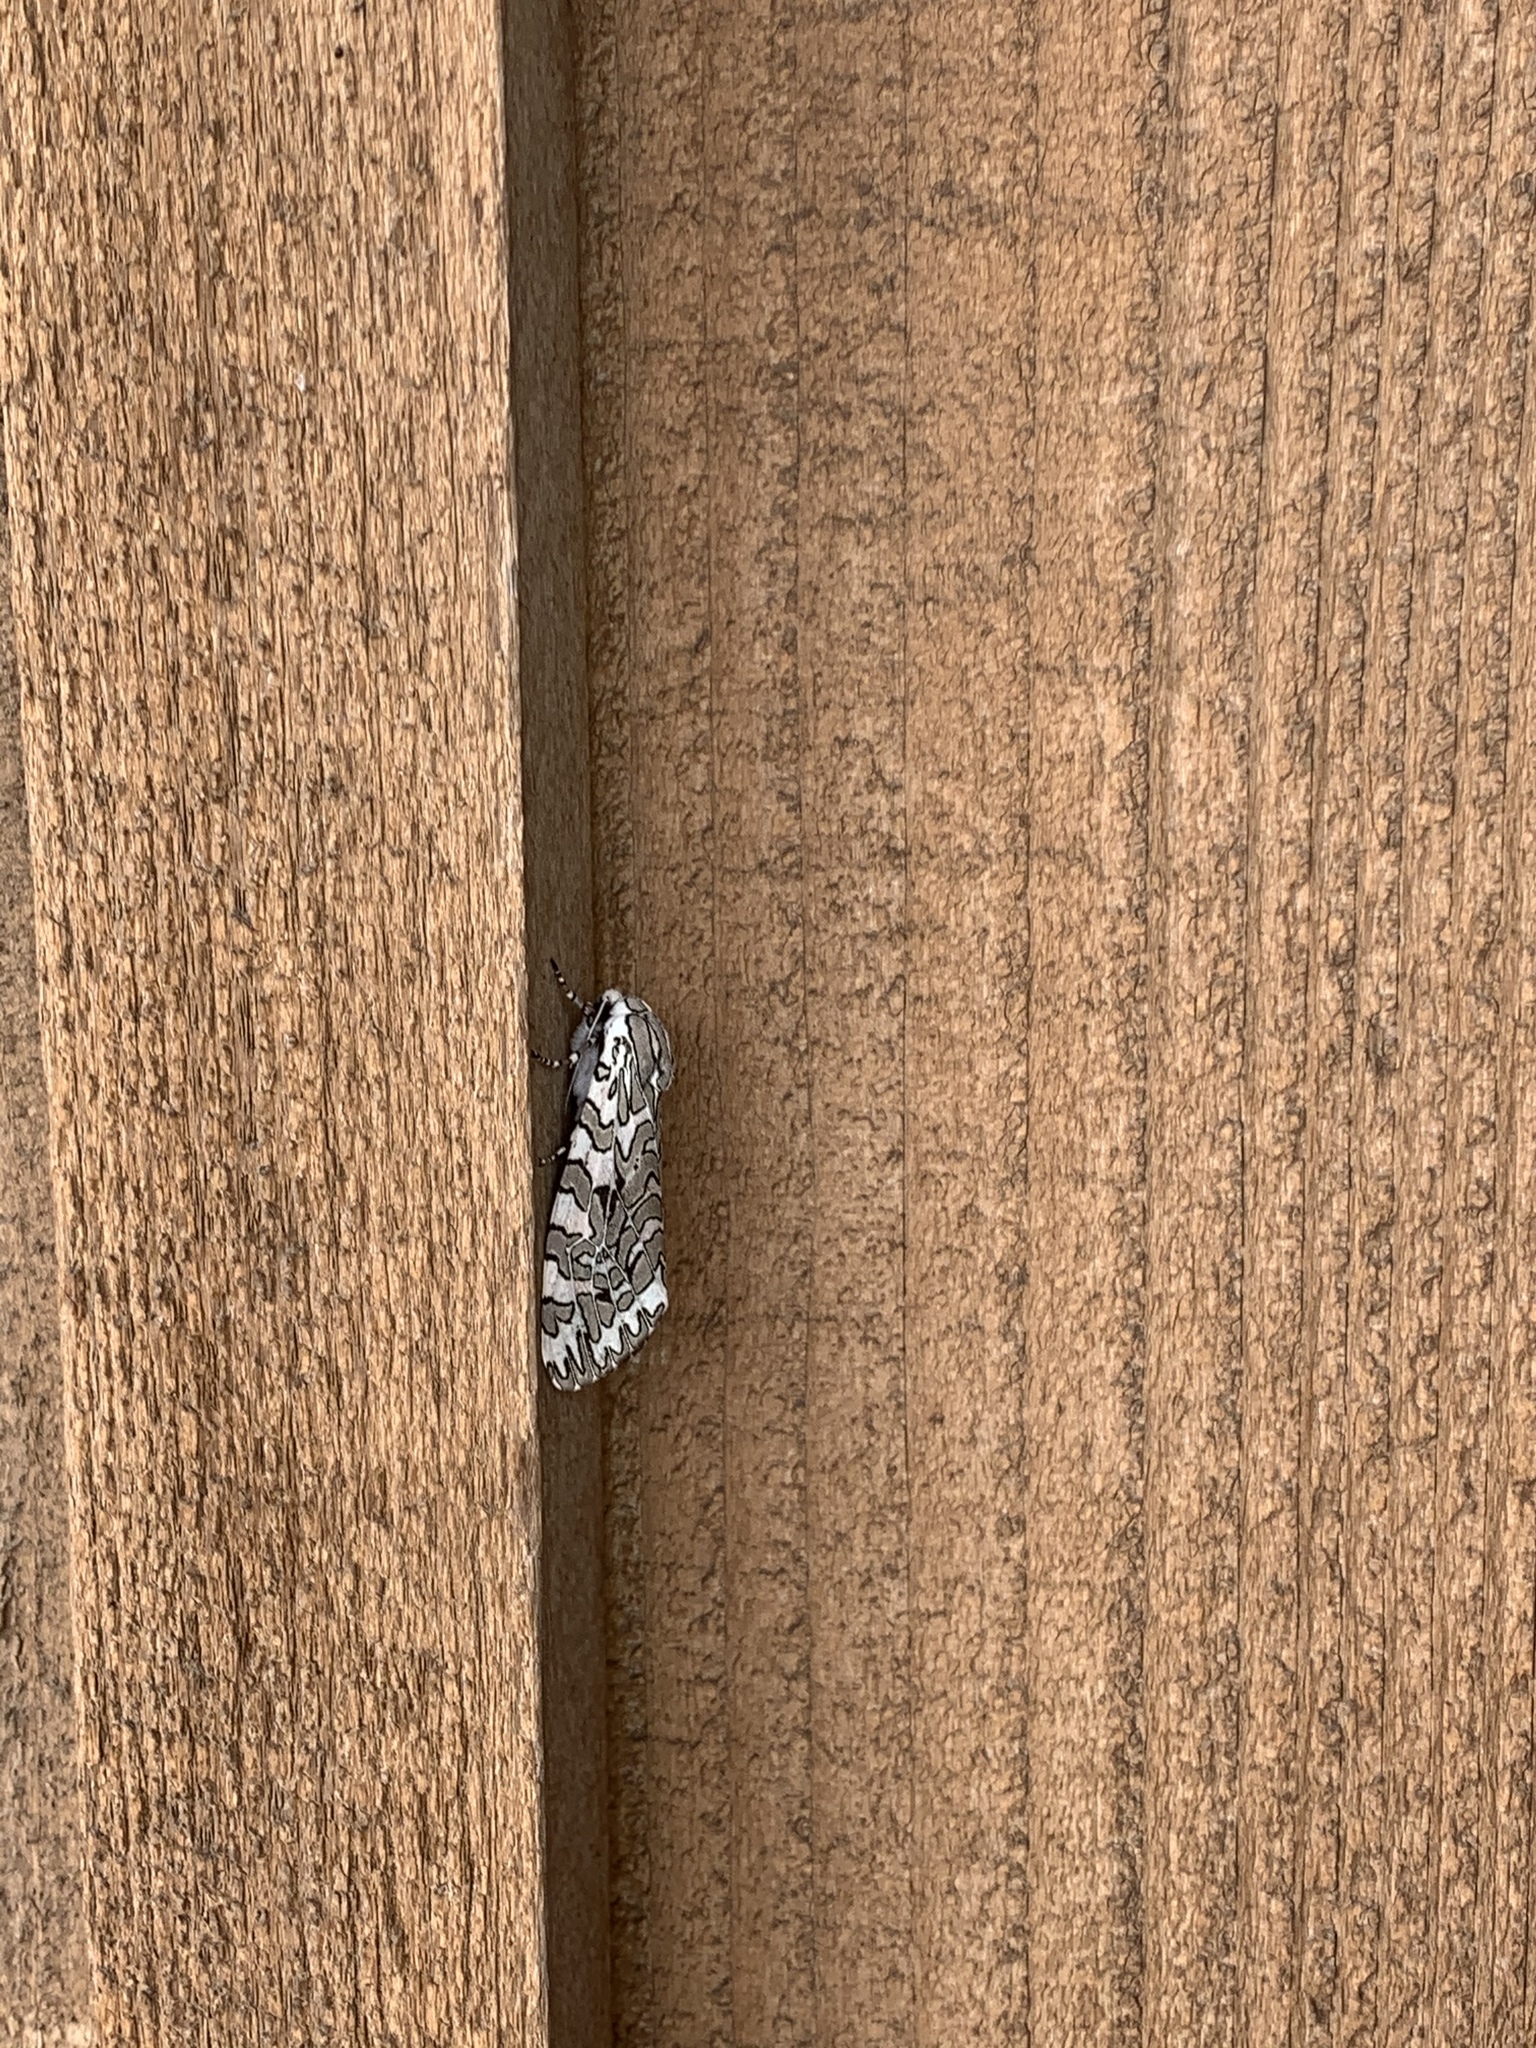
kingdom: Animalia
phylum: Arthropoda
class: Insecta
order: Lepidoptera
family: Erebidae
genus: Arachnis
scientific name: Arachnis picta
